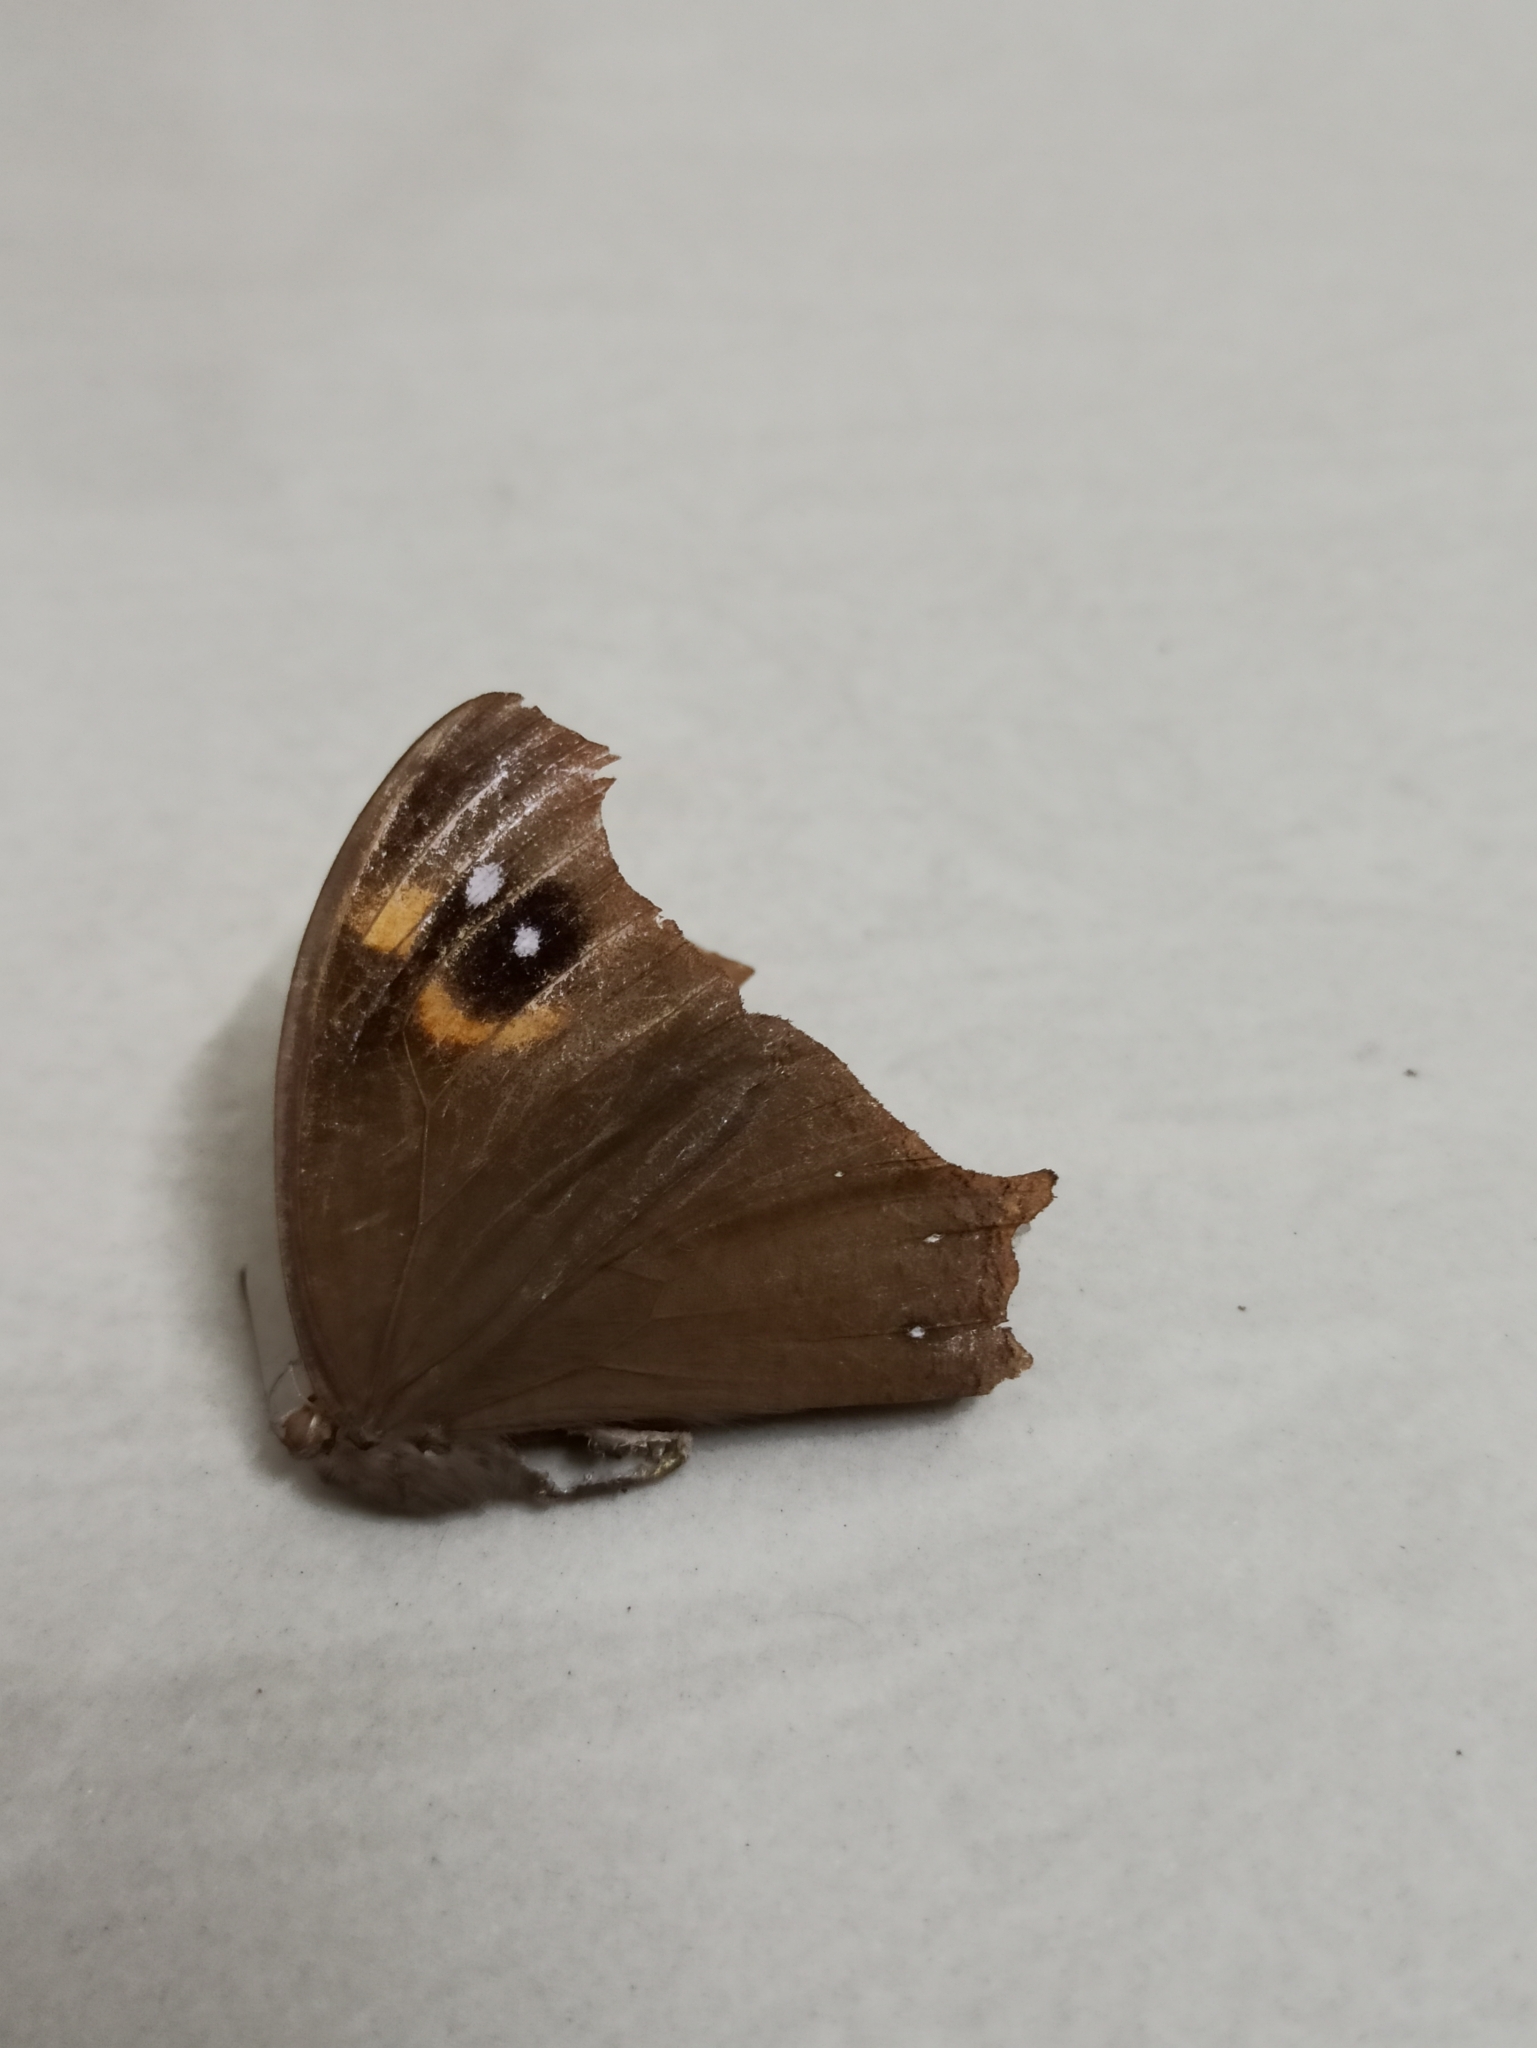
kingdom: Animalia
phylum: Arthropoda
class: Insecta
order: Lepidoptera
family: Nymphalidae
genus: Melanitis
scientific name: Melanitis leda
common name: Twilight brown
